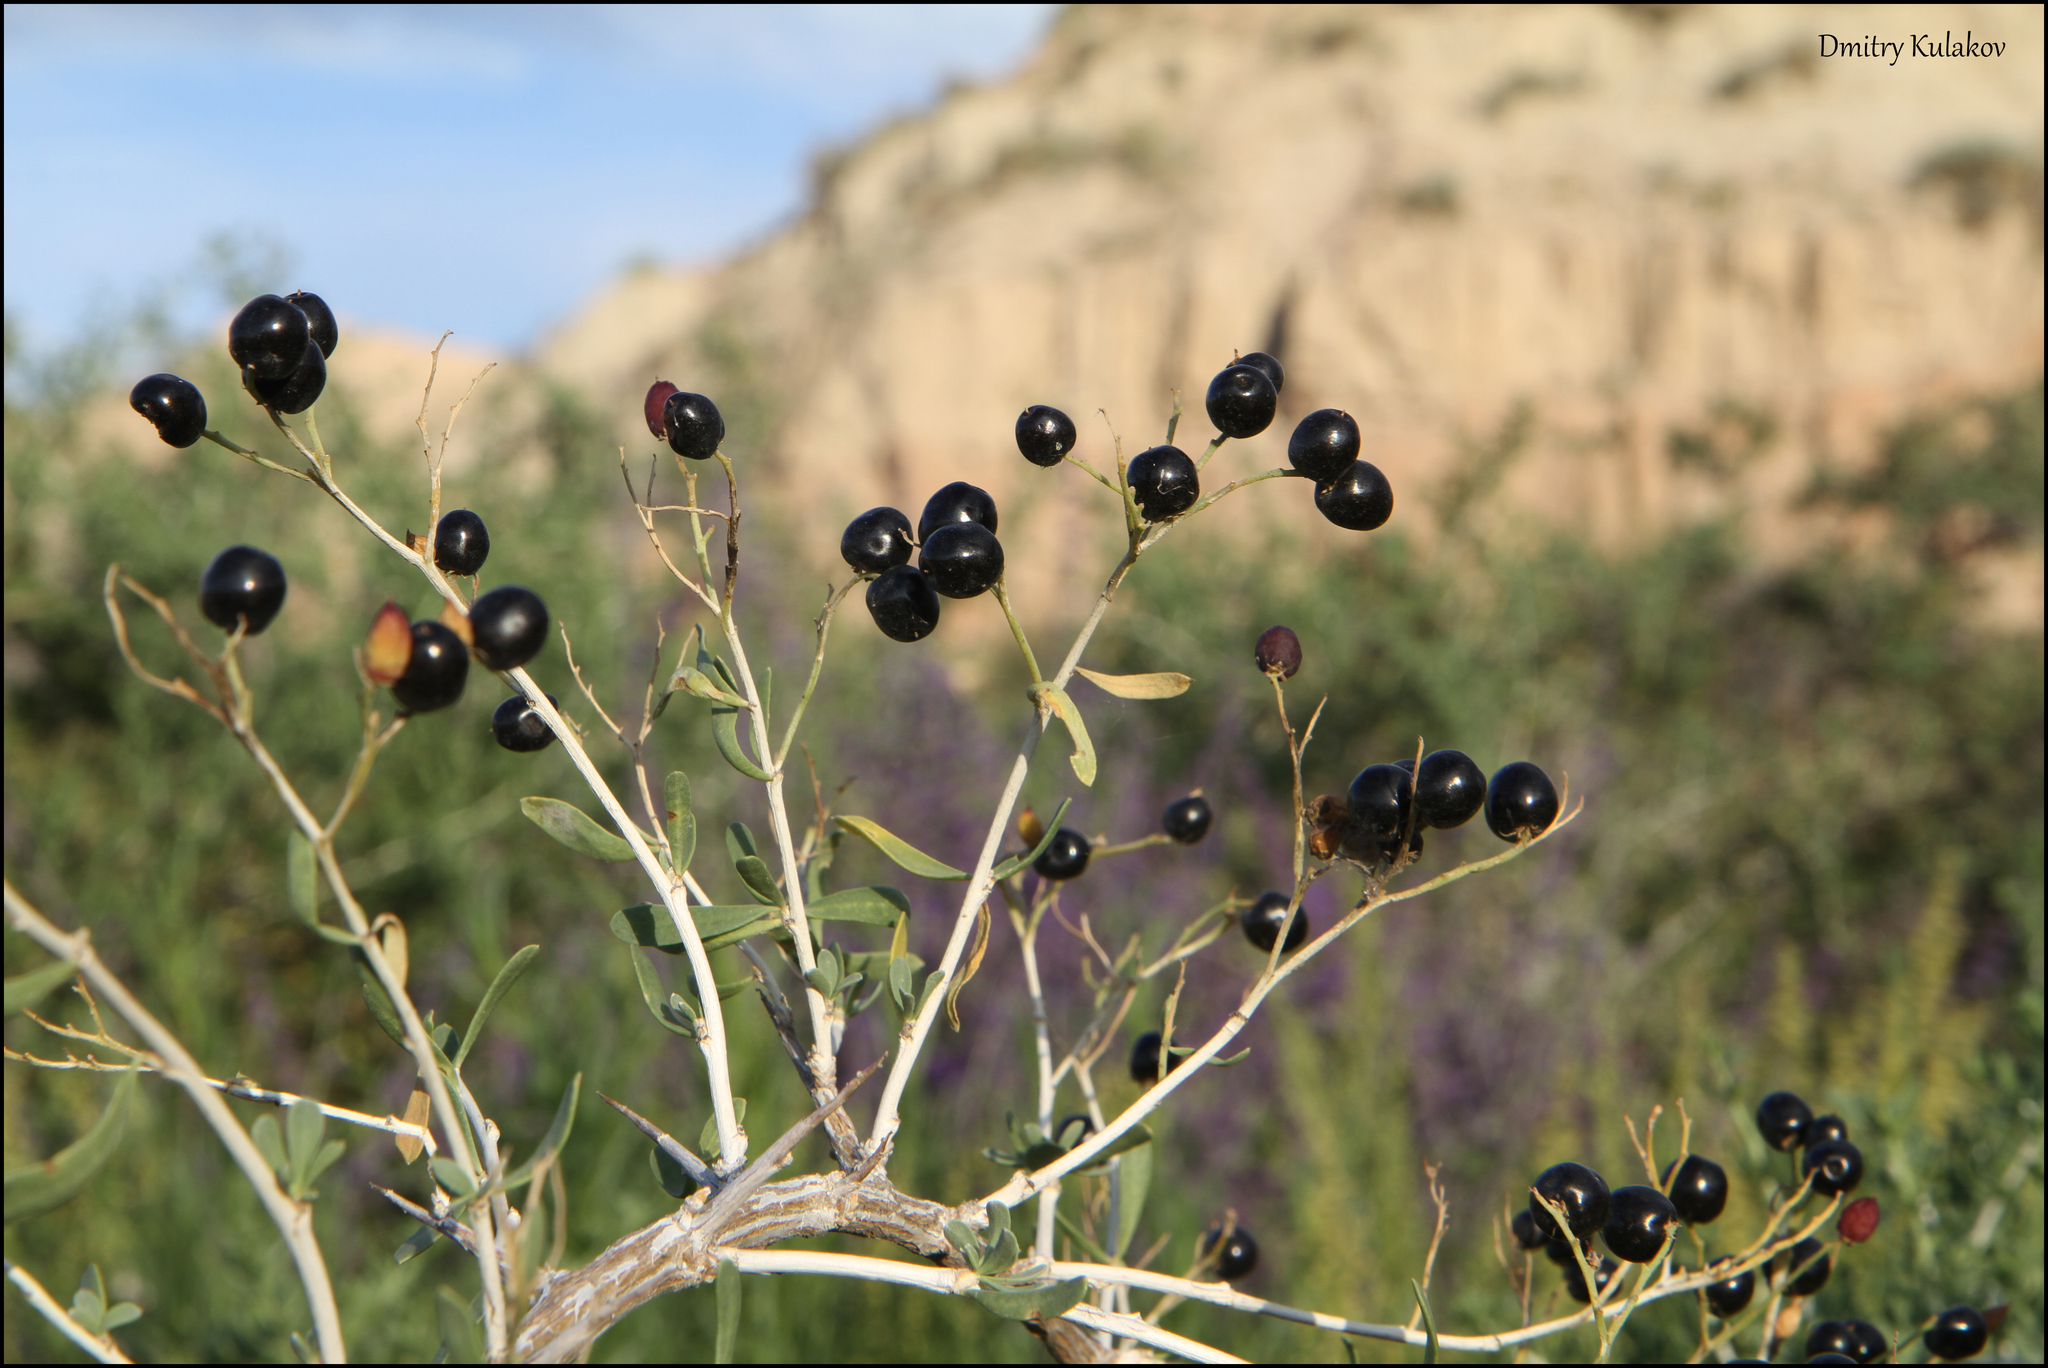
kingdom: Plantae
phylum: Tracheophyta
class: Magnoliopsida
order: Sapindales
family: Nitrariaceae
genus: Nitraria
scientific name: Nitraria sibirica
